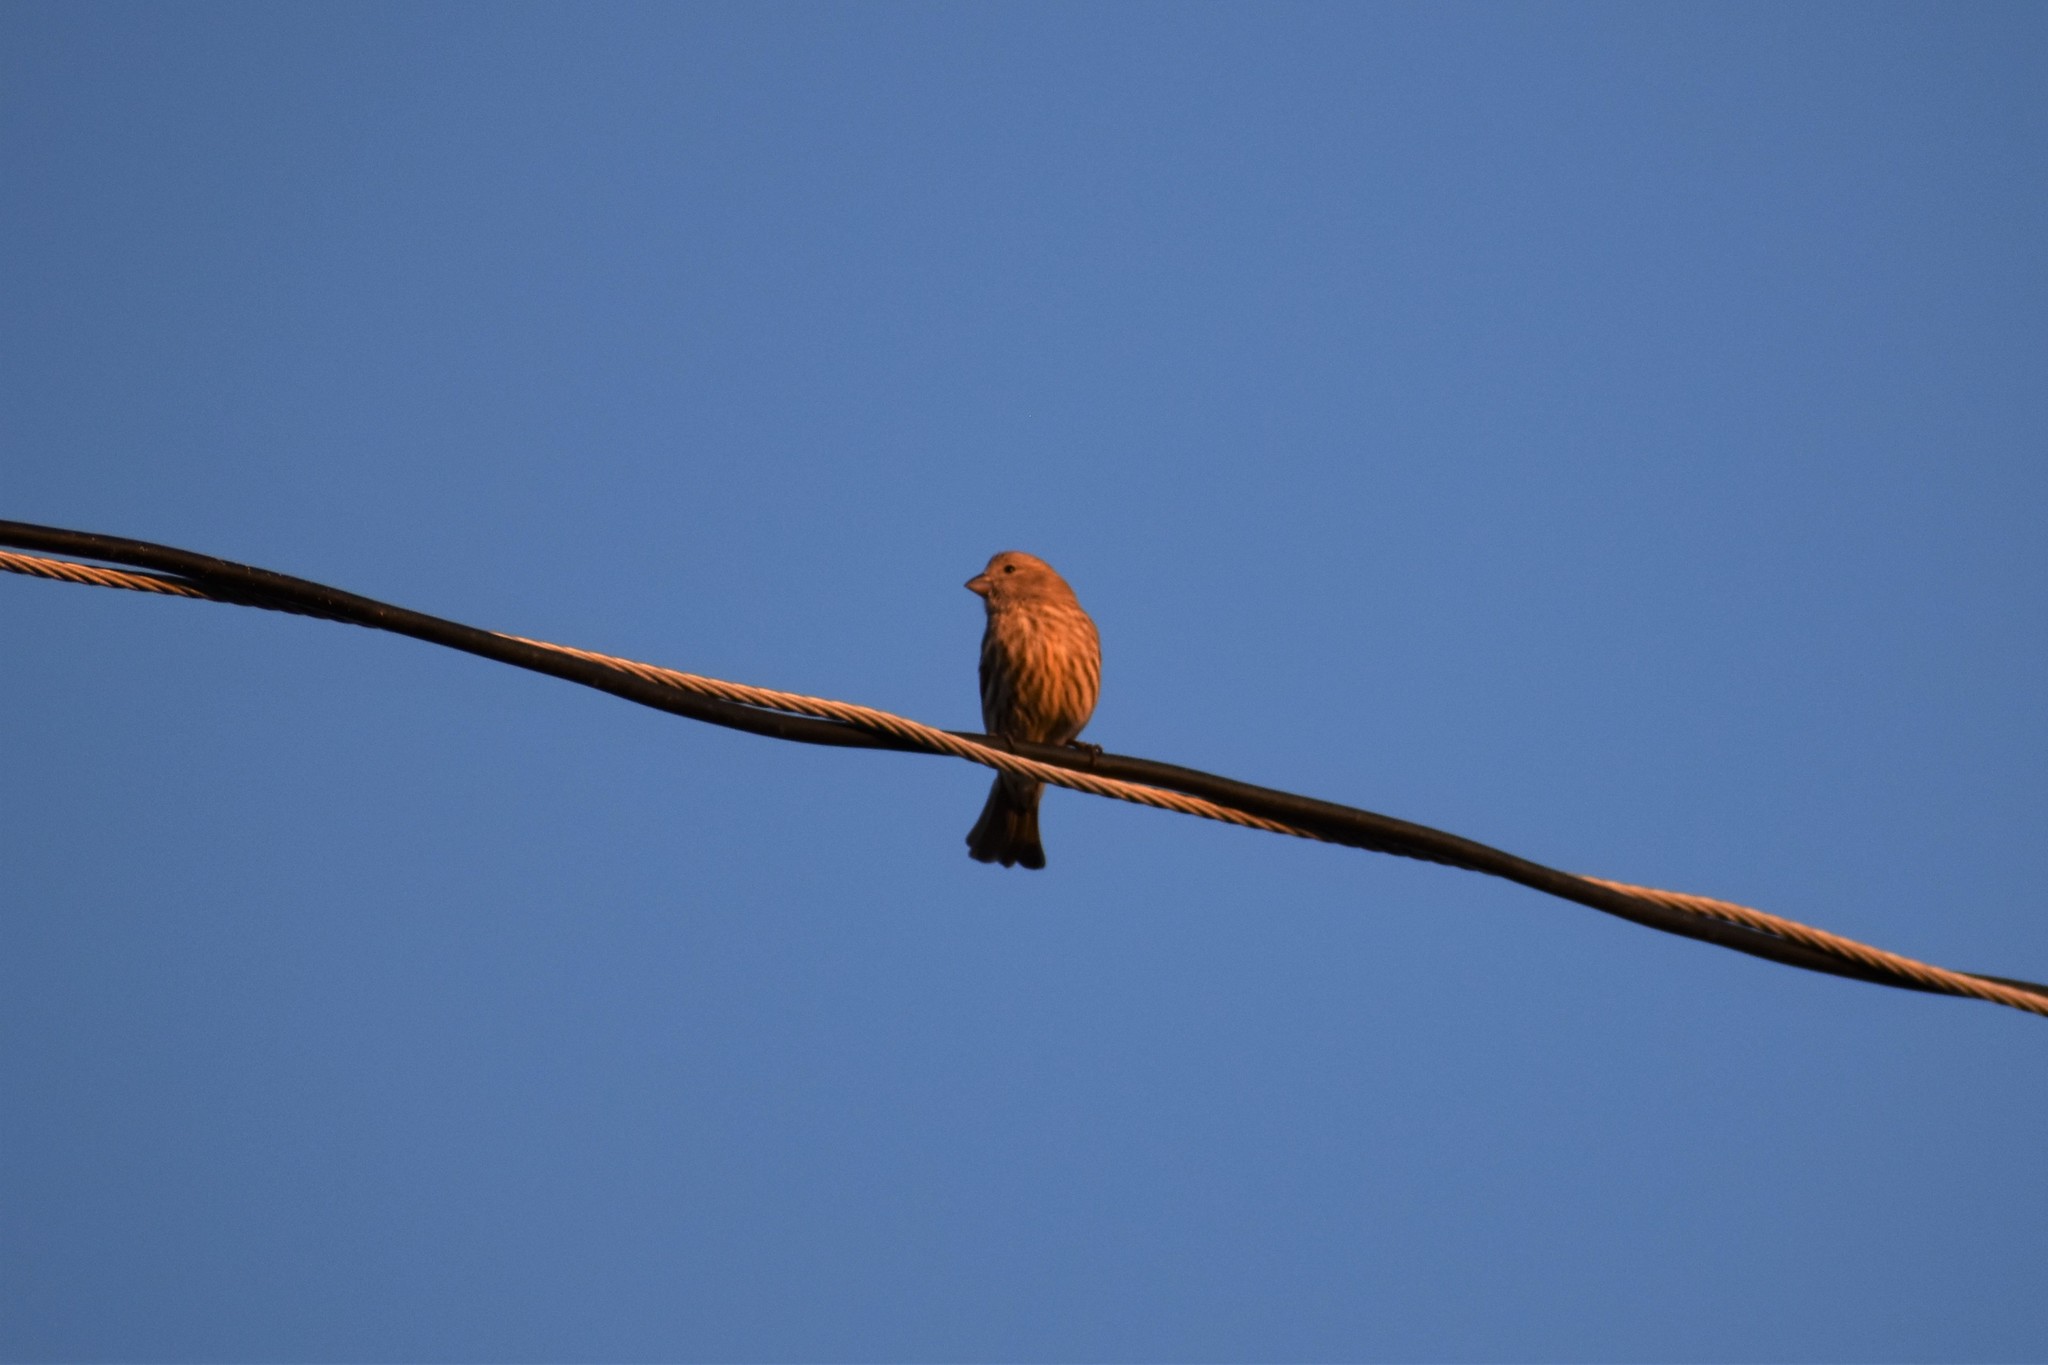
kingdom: Animalia
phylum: Chordata
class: Aves
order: Passeriformes
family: Fringillidae
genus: Haemorhous
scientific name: Haemorhous mexicanus
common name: House finch
